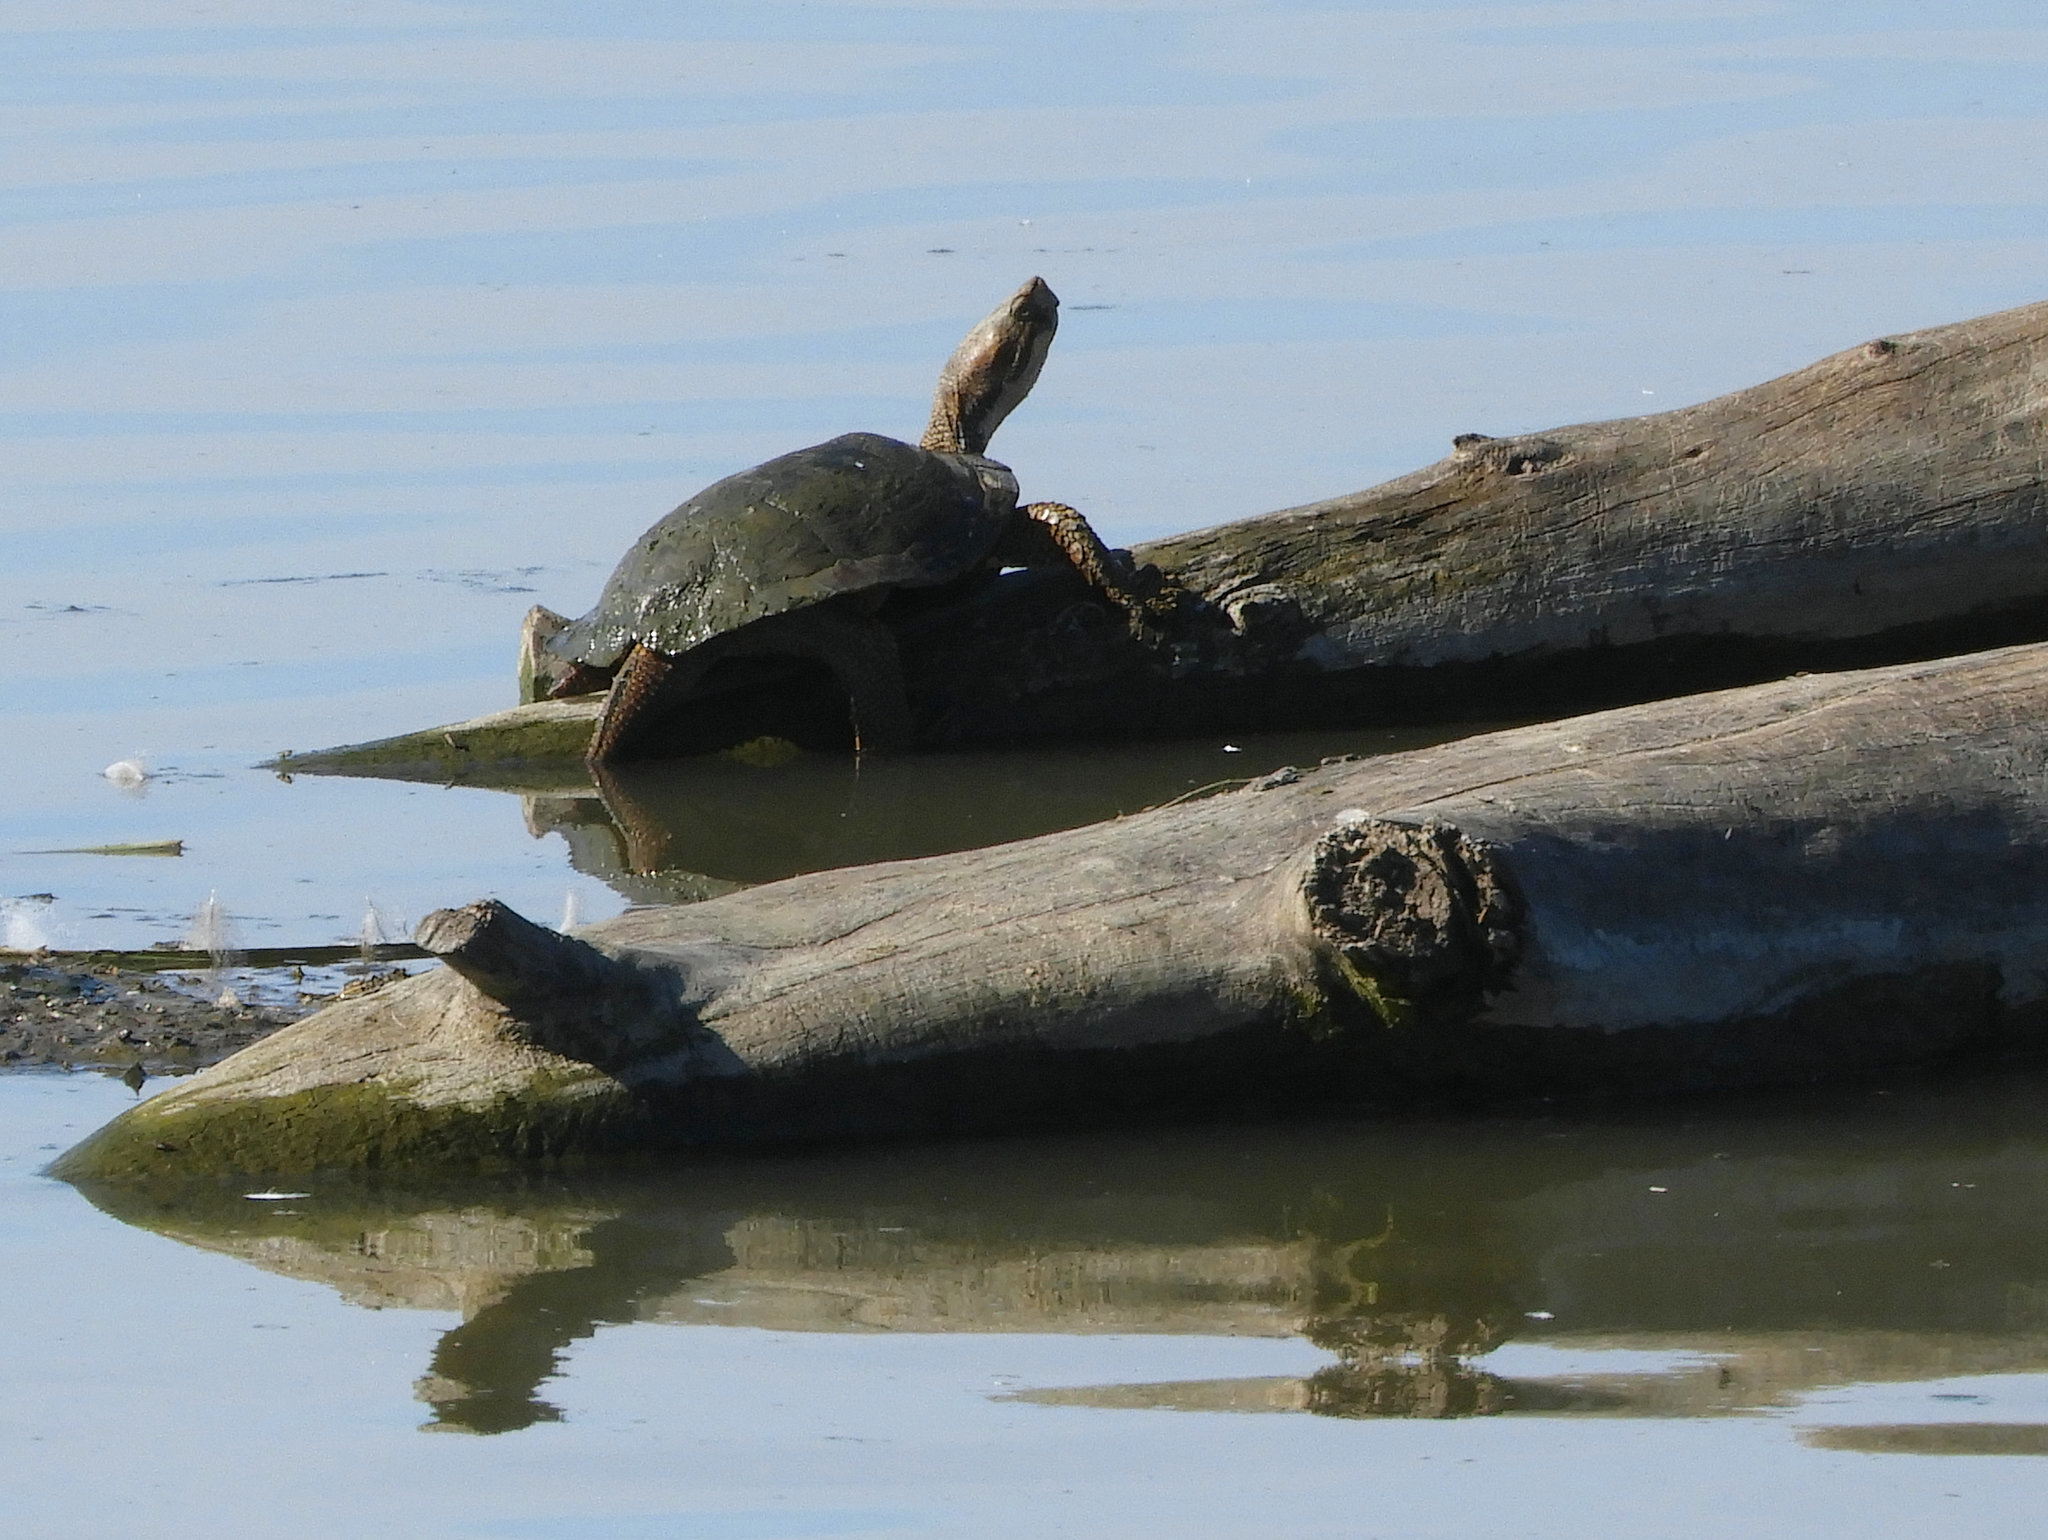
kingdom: Animalia
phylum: Chordata
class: Testudines
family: Emydidae
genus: Actinemys
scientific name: Actinemys marmorata
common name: Western pond turtle
